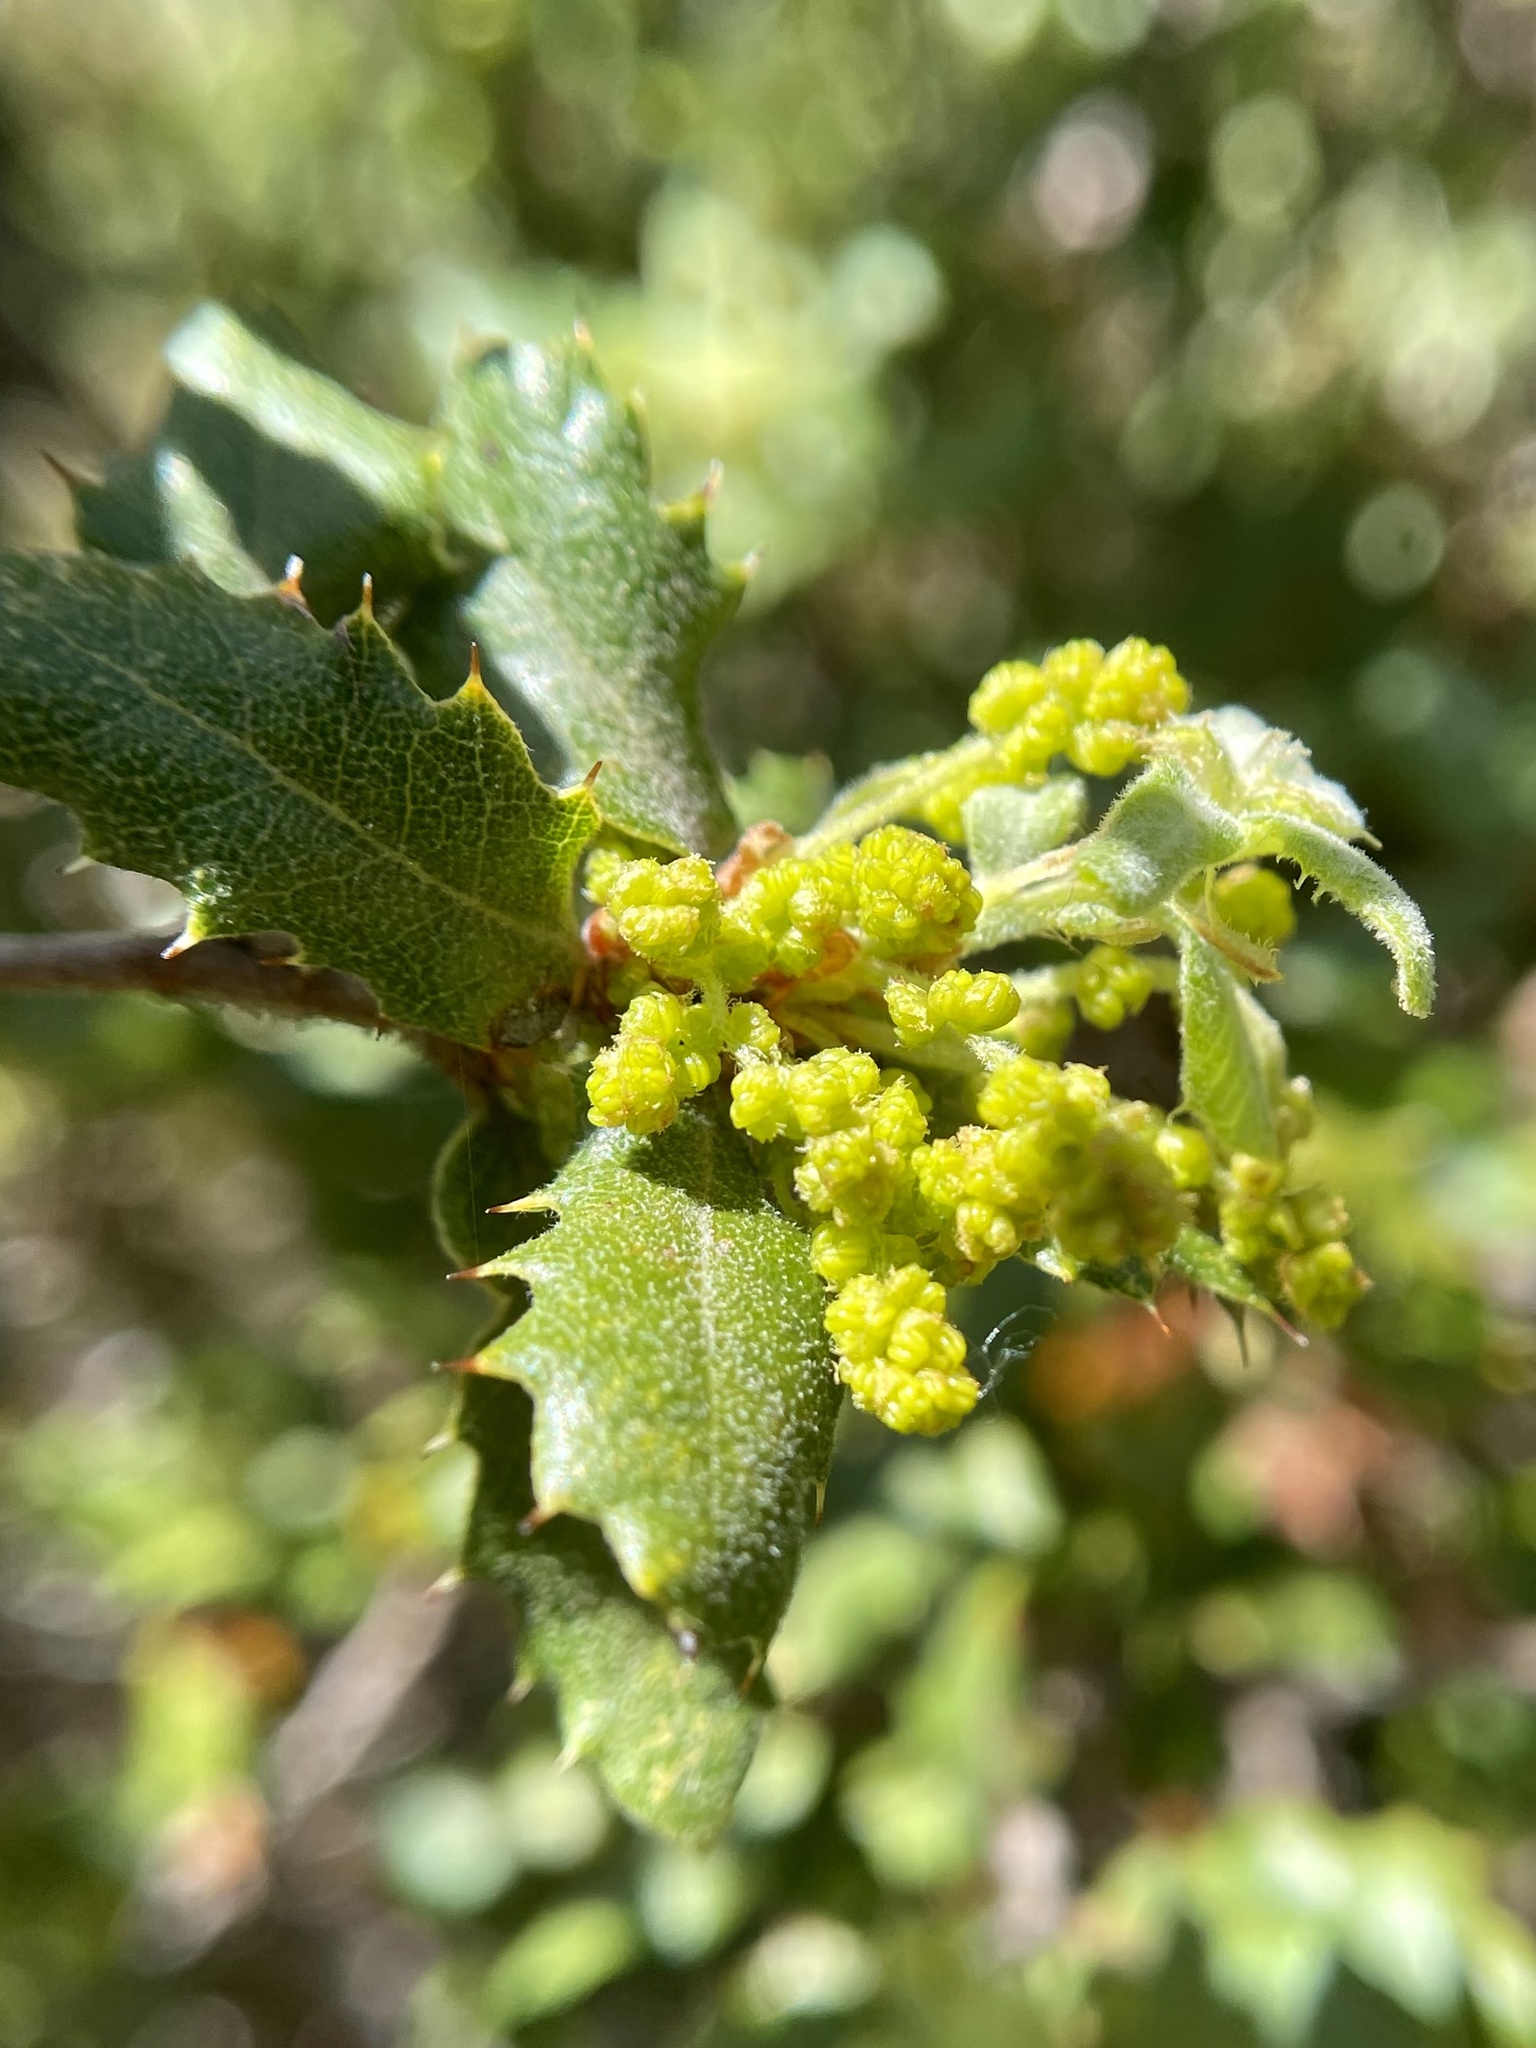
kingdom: Plantae
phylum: Tracheophyta
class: Magnoliopsida
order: Fagales
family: Fagaceae
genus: Quercus
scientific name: Quercus durata
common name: Leather oak
